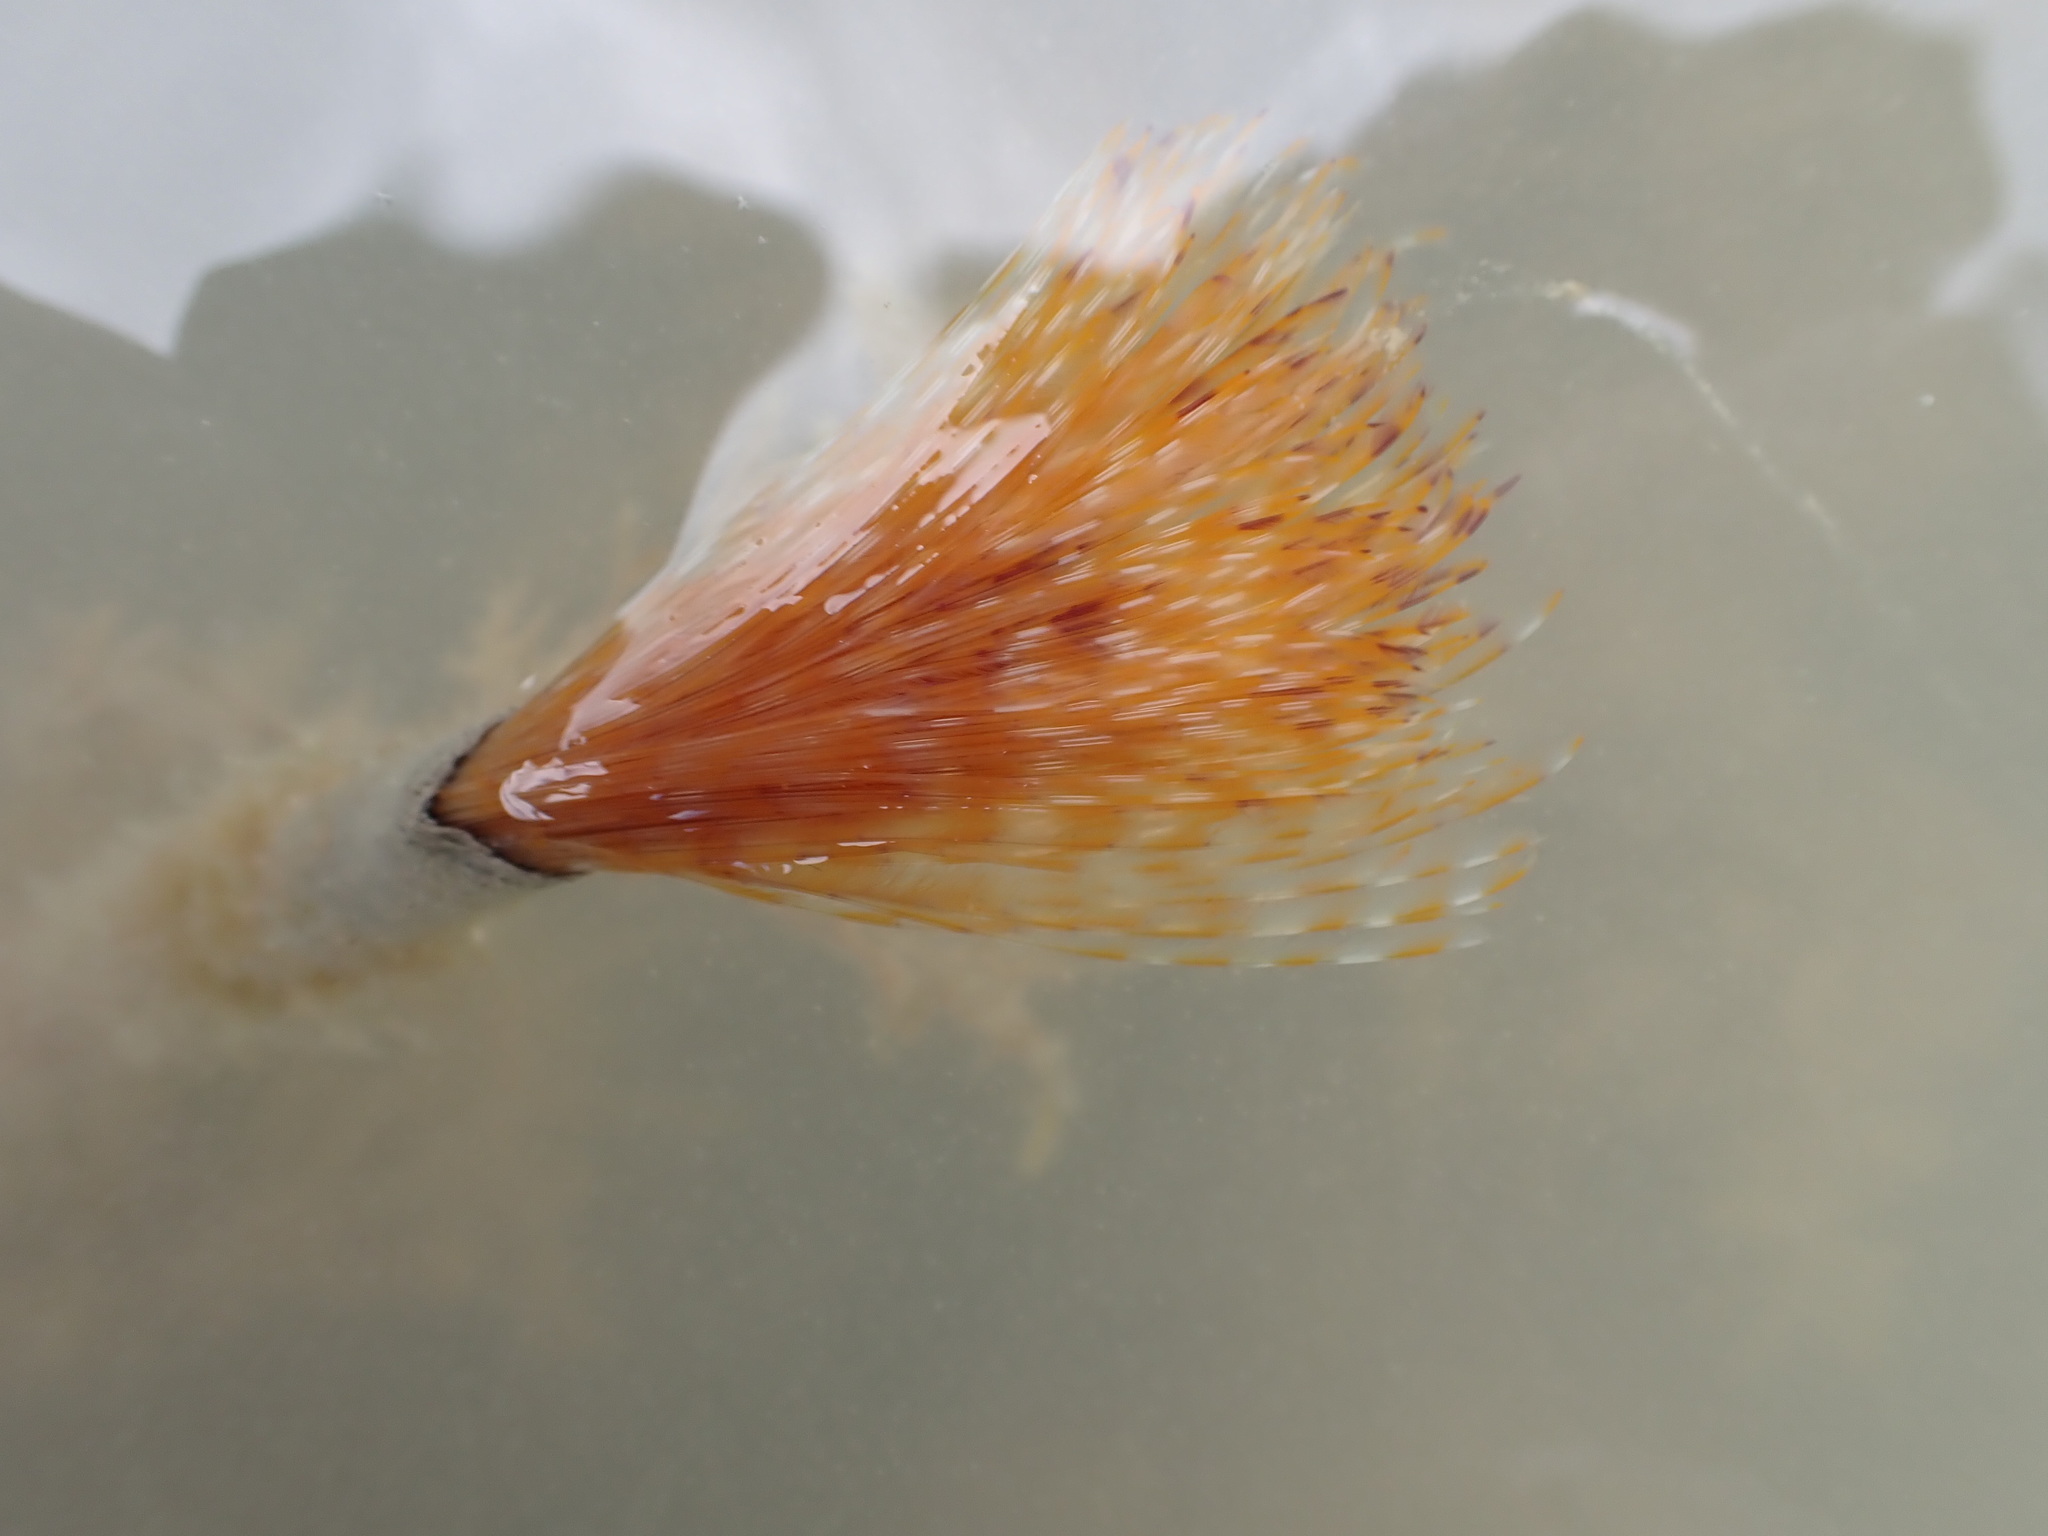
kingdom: Animalia
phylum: Annelida
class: Polychaeta
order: Sabellida
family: Sabellidae
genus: Sabella
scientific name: Sabella spallanzanii
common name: Feather duster worm
